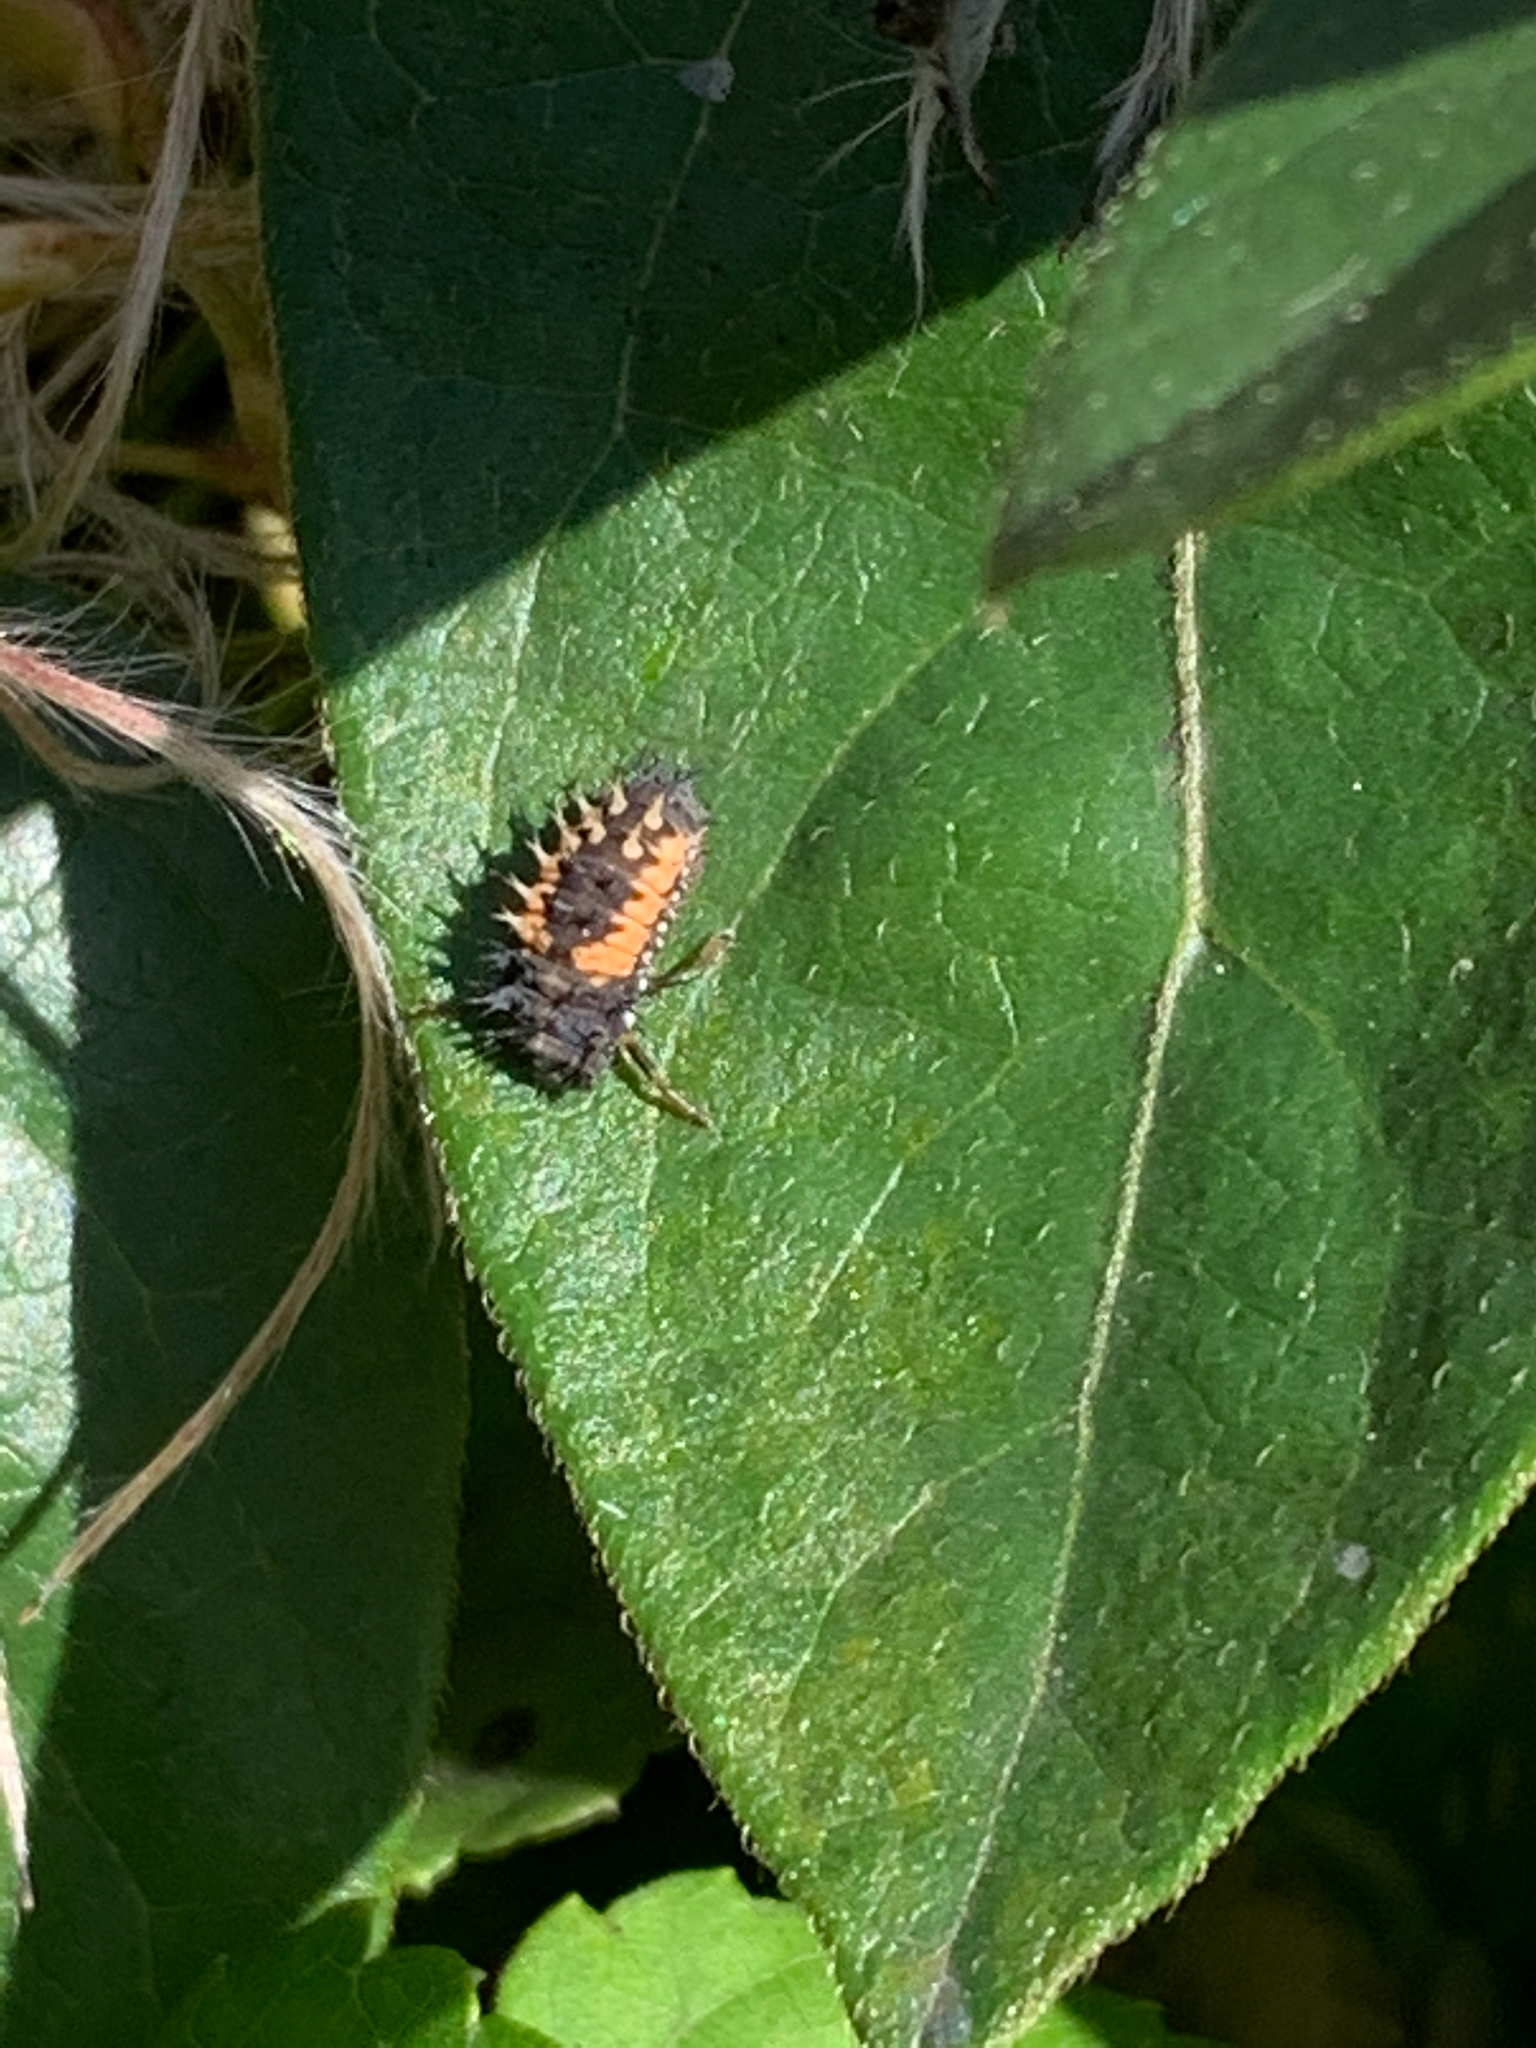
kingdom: Animalia
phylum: Arthropoda
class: Insecta
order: Coleoptera
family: Coccinellidae
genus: Harmonia
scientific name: Harmonia axyridis
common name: Harlequin ladybird
